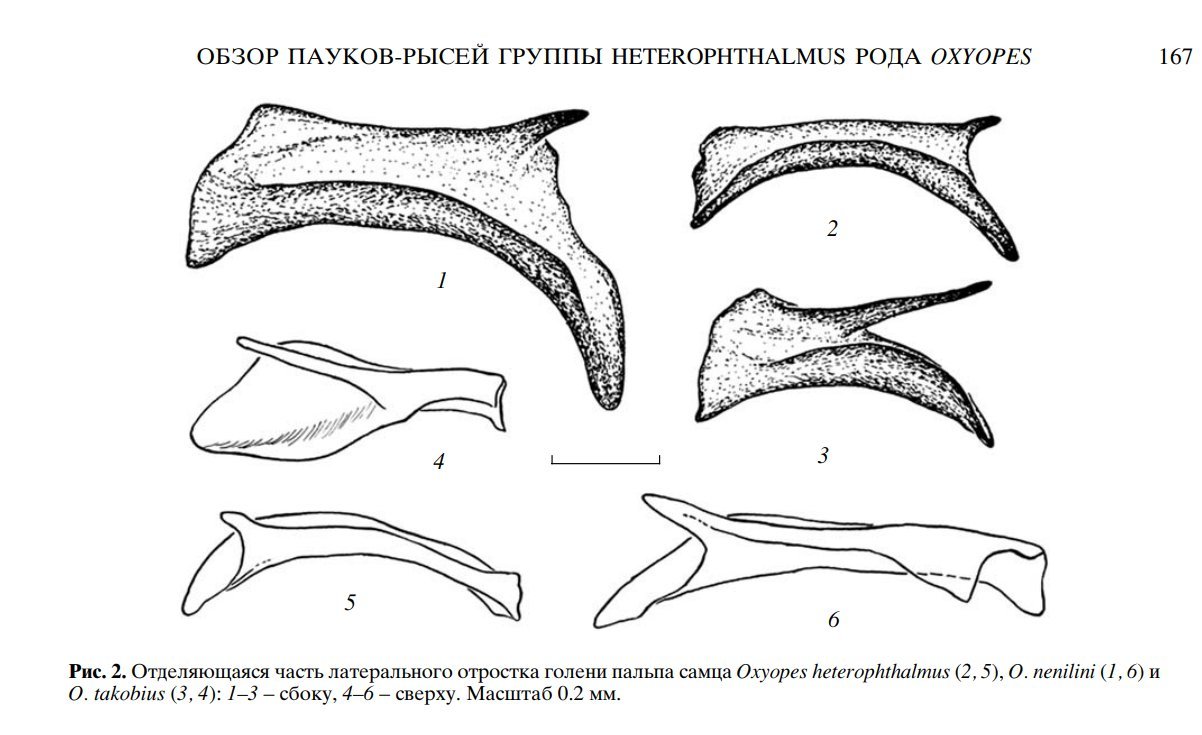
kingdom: Animalia
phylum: Arthropoda
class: Arachnida
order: Araneae
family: Oxyopidae
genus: Oxyopes
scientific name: Oxyopes takobius
